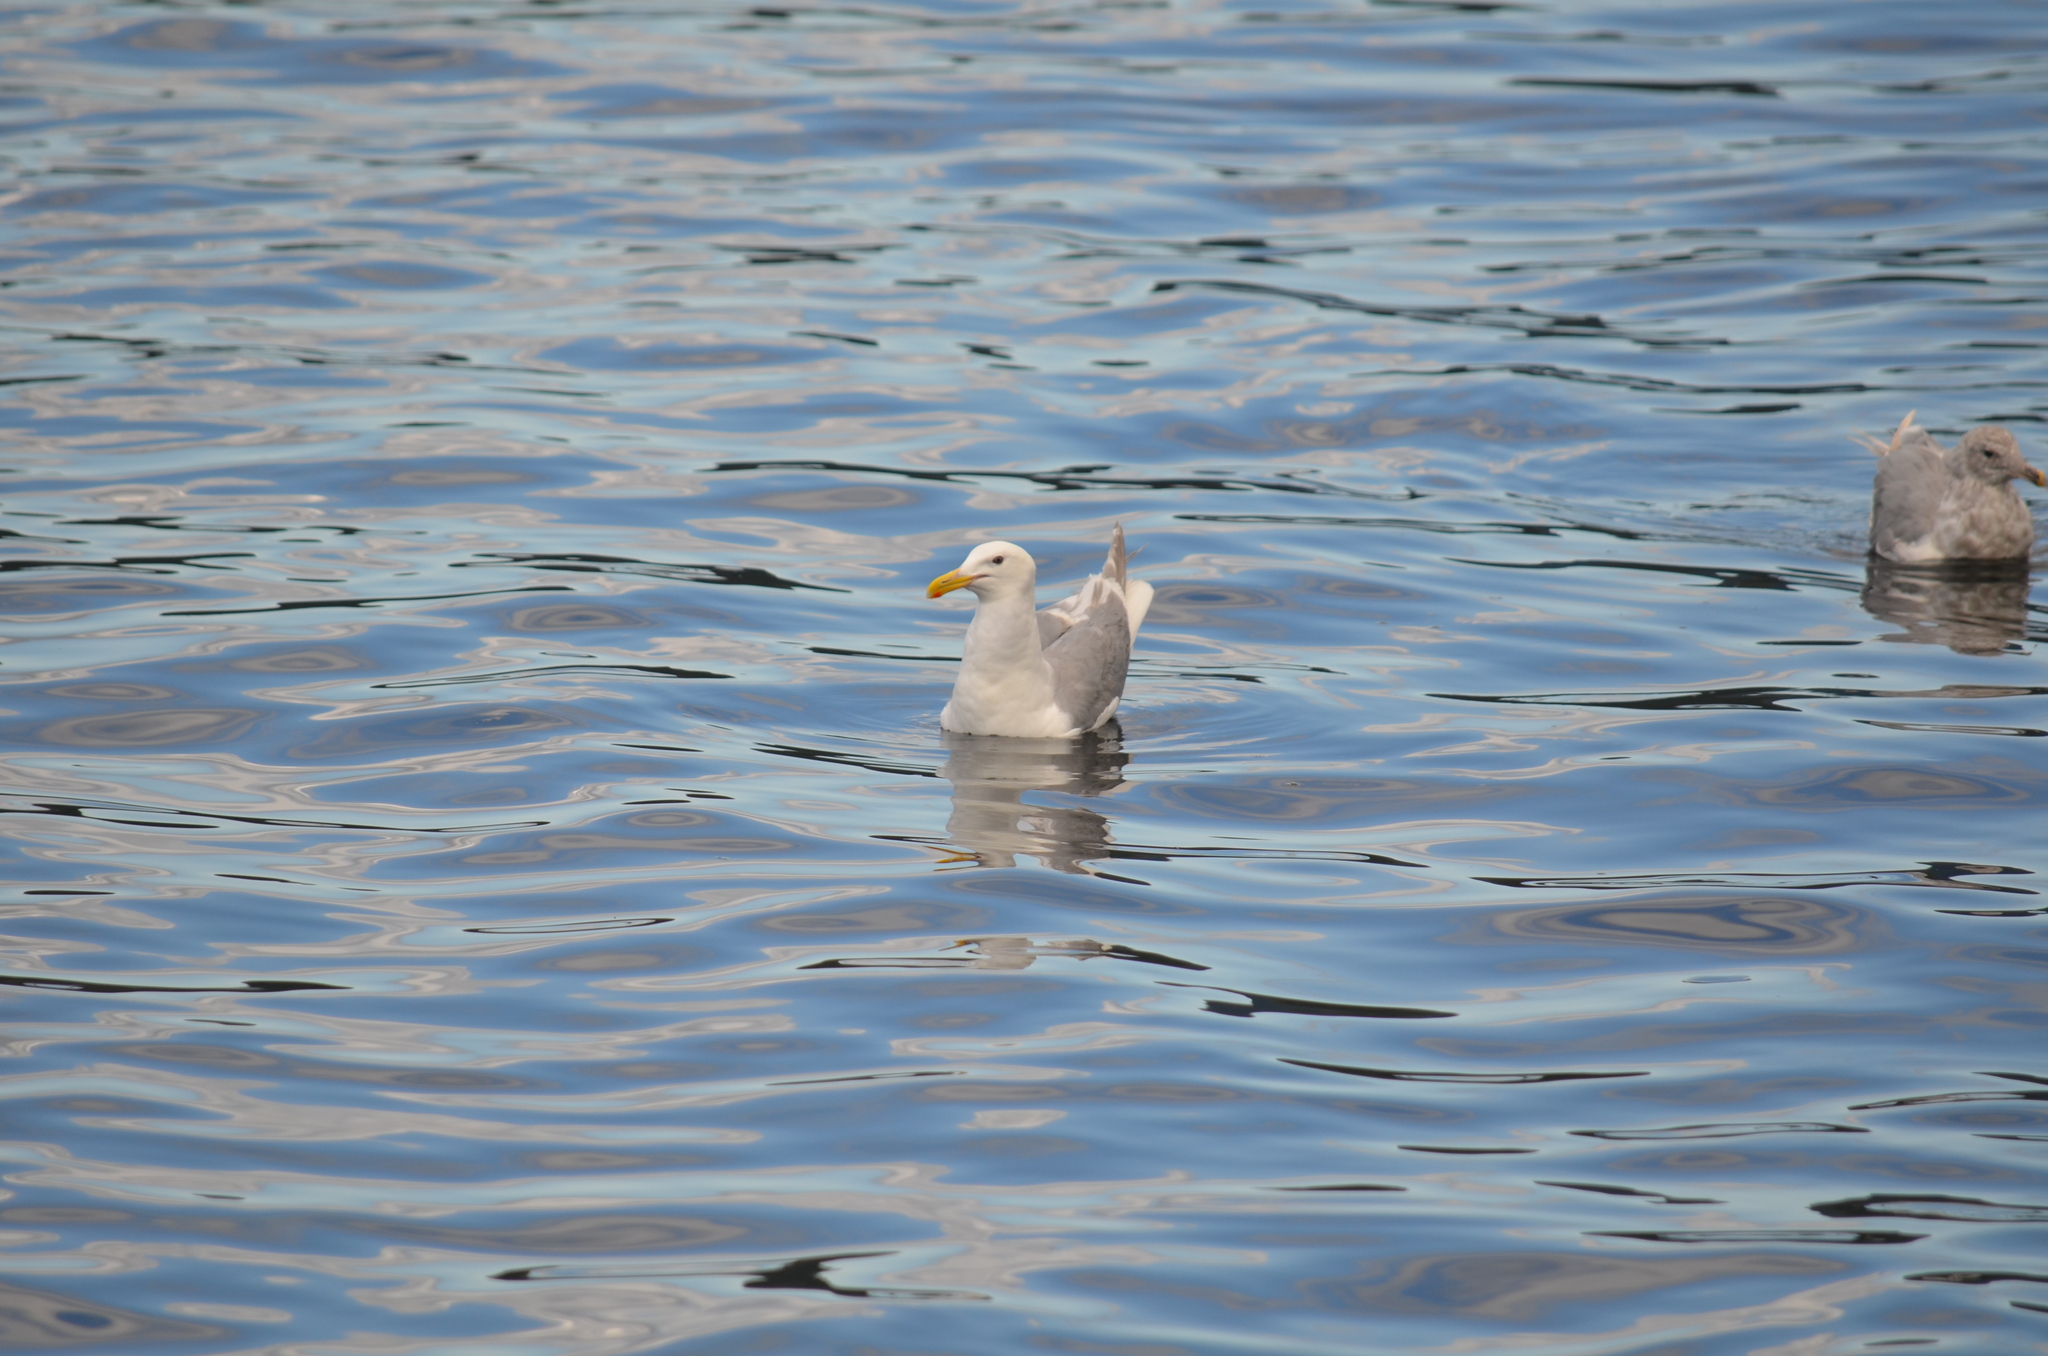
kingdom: Animalia
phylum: Chordata
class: Aves
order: Charadriiformes
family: Laridae
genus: Larus
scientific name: Larus glaucescens
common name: Glaucous-winged gull
